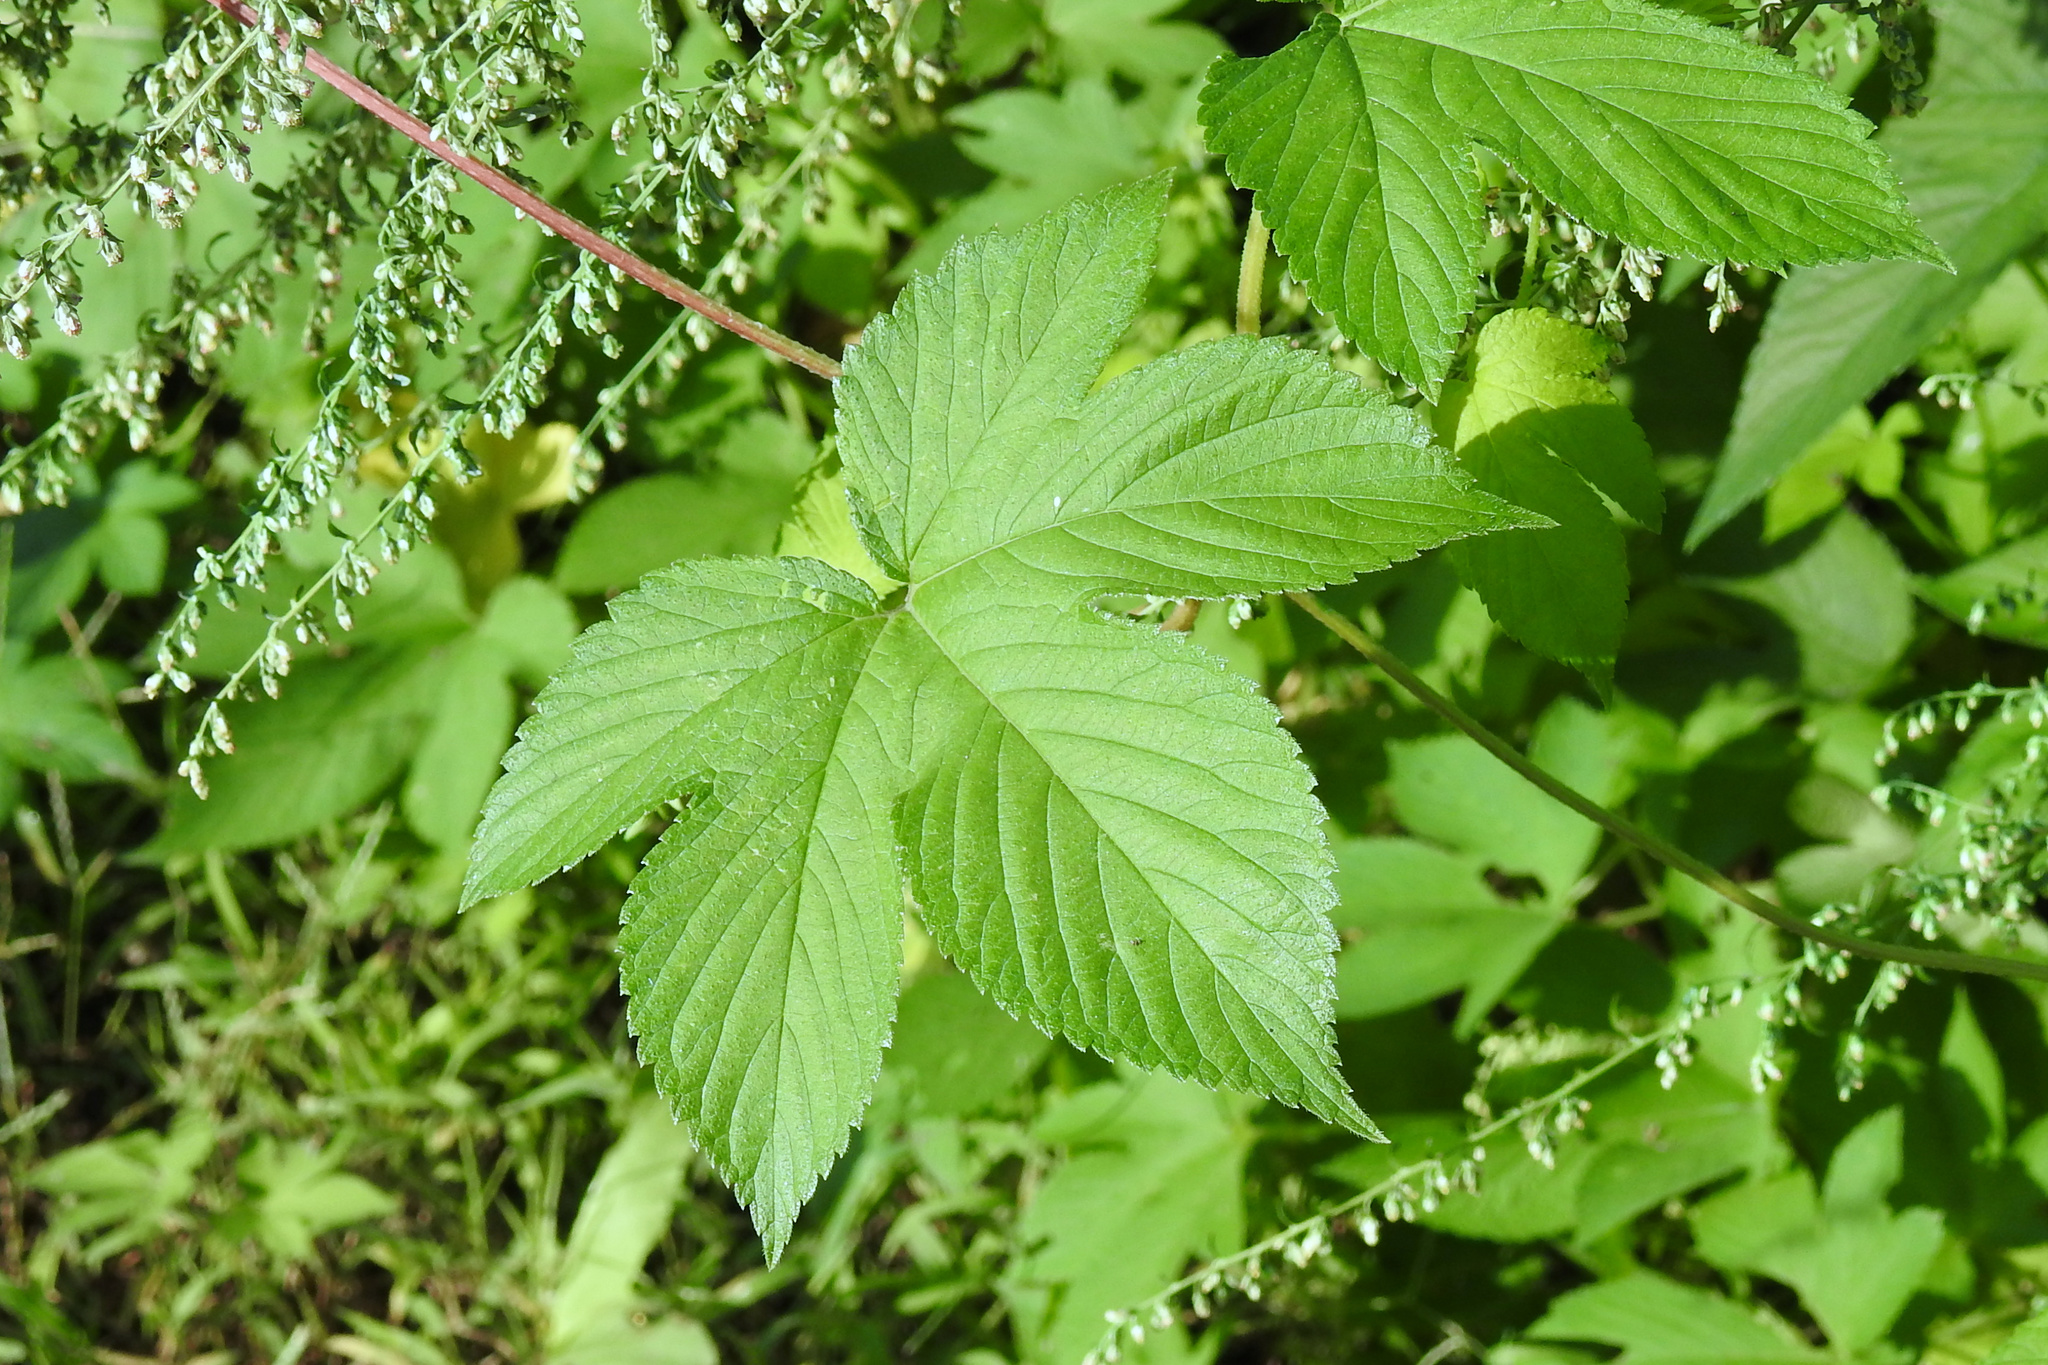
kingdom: Plantae
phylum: Tracheophyta
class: Magnoliopsida
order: Rosales
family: Cannabaceae
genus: Humulus
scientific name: Humulus scandens
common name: Japanese hop
